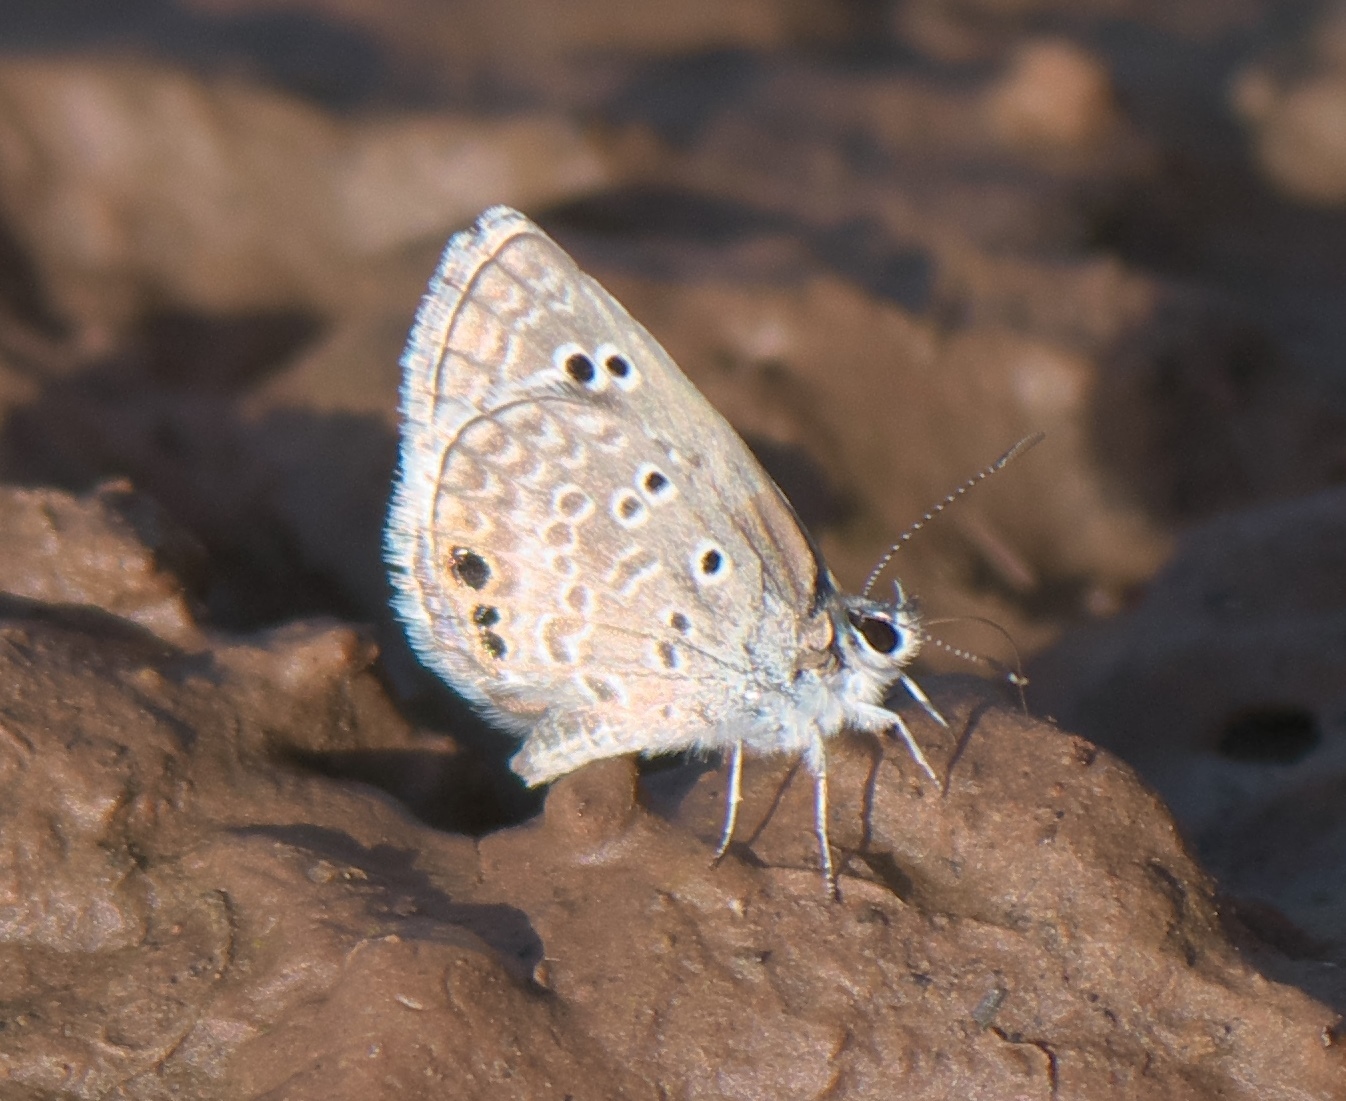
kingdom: Animalia
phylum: Arthropoda
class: Insecta
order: Lepidoptera
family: Lycaenidae
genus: Echinargus
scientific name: Echinargus isola
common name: Reakirt's blue
